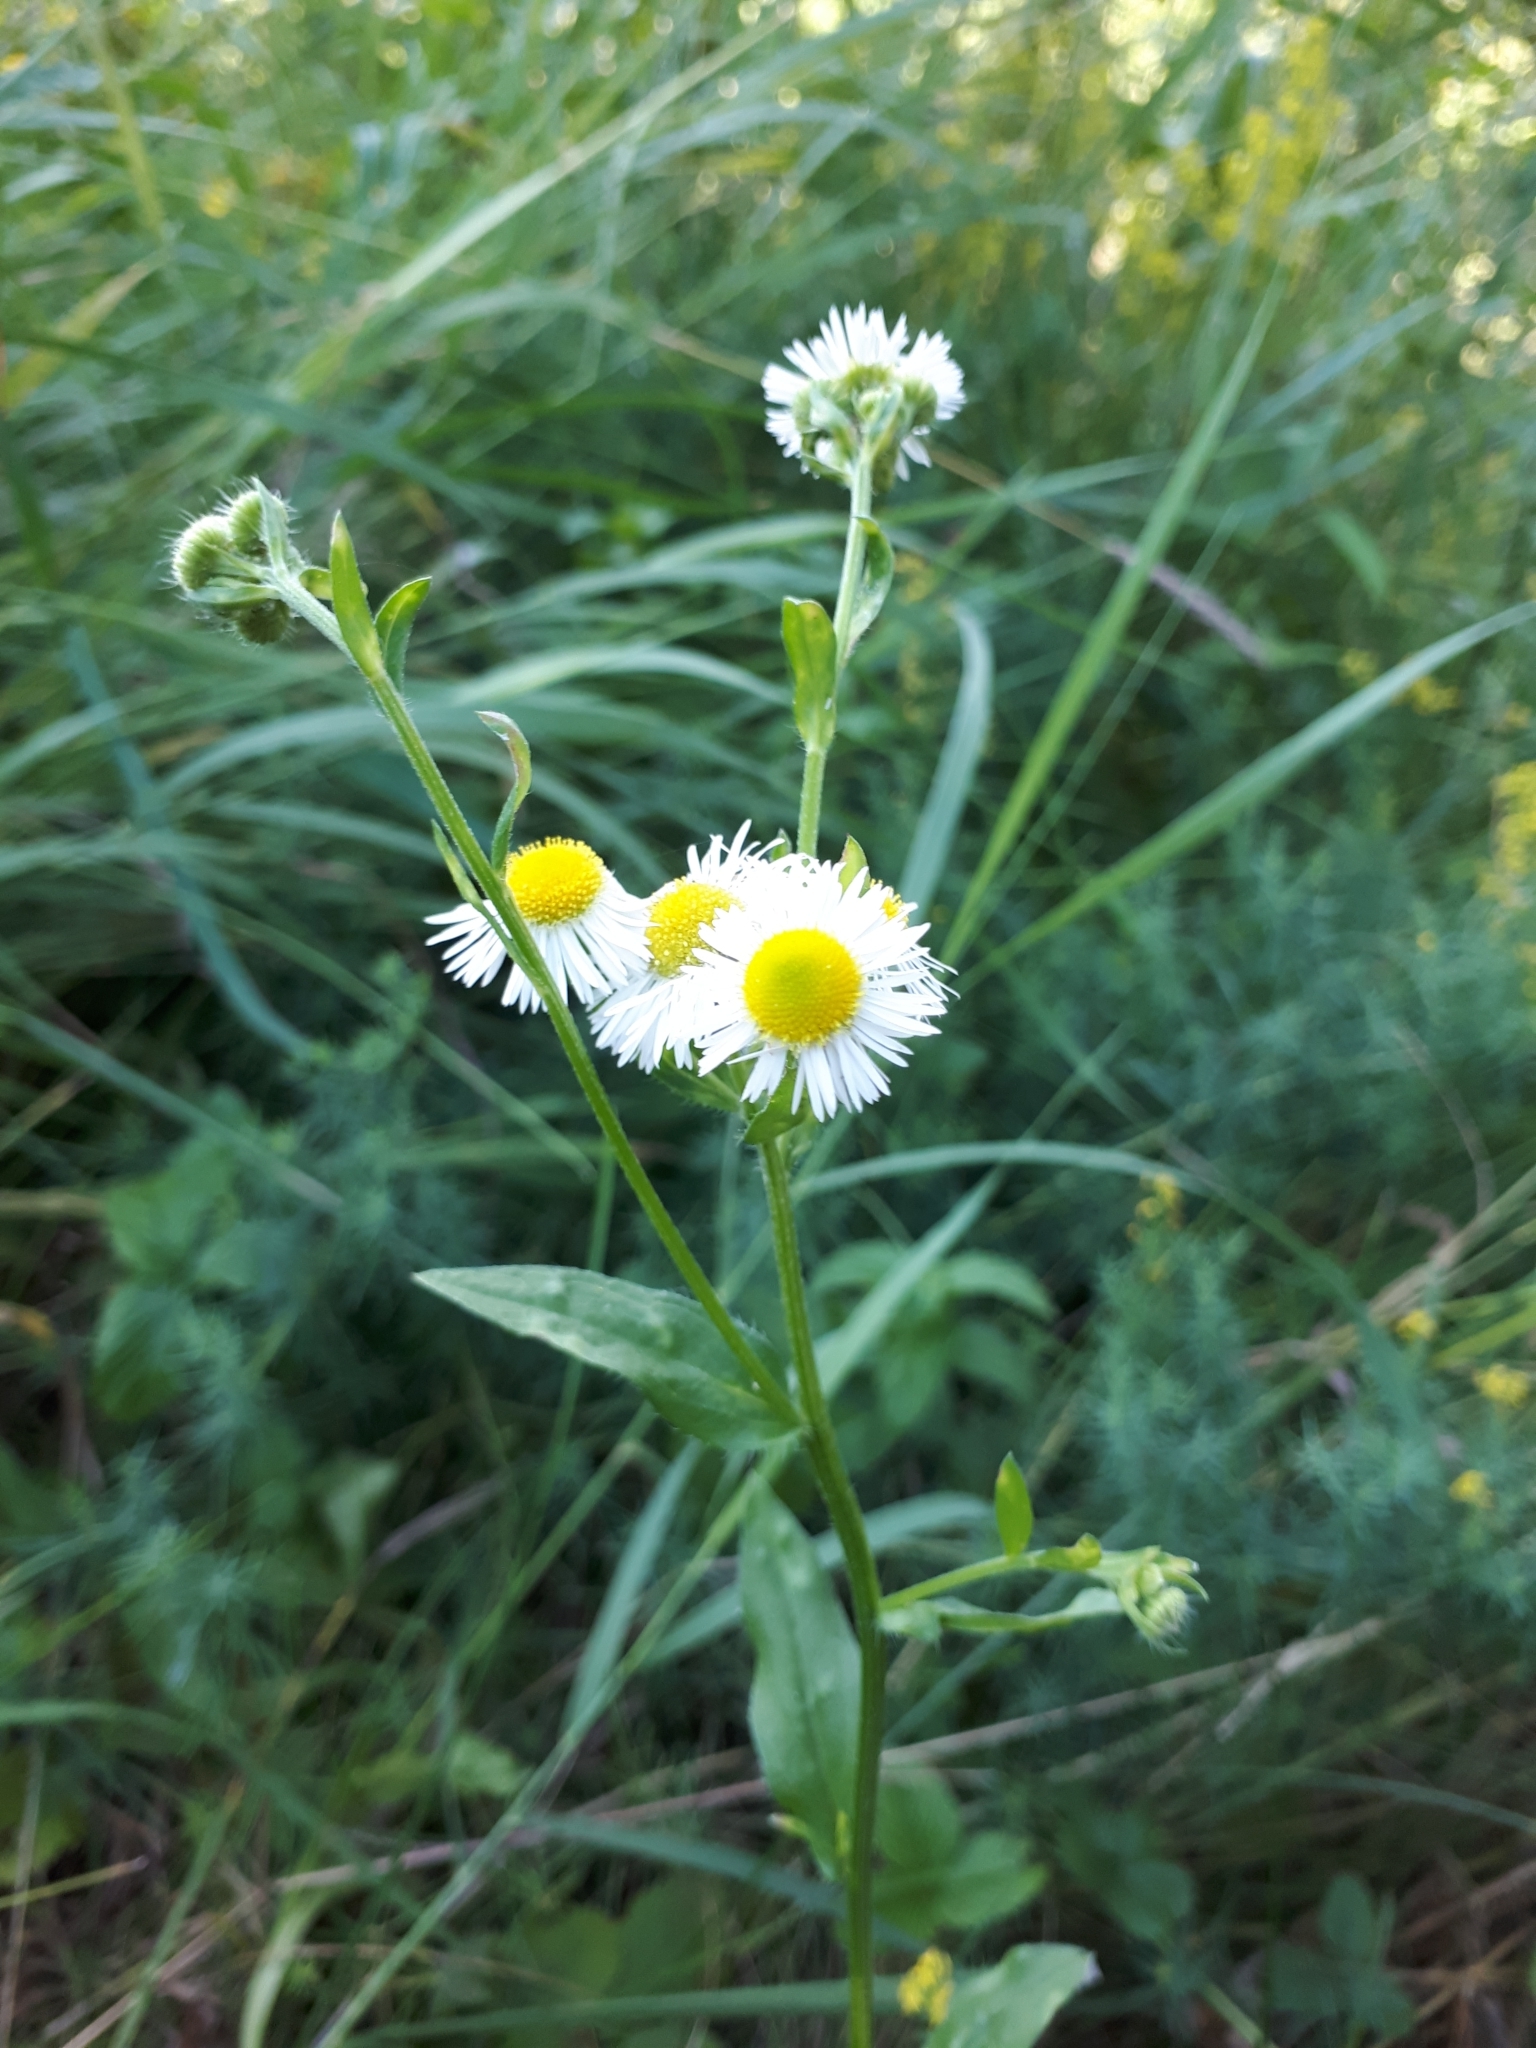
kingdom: Plantae
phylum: Tracheophyta
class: Magnoliopsida
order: Asterales
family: Asteraceae
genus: Erigeron
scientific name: Erigeron annuus
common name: Tall fleabane
